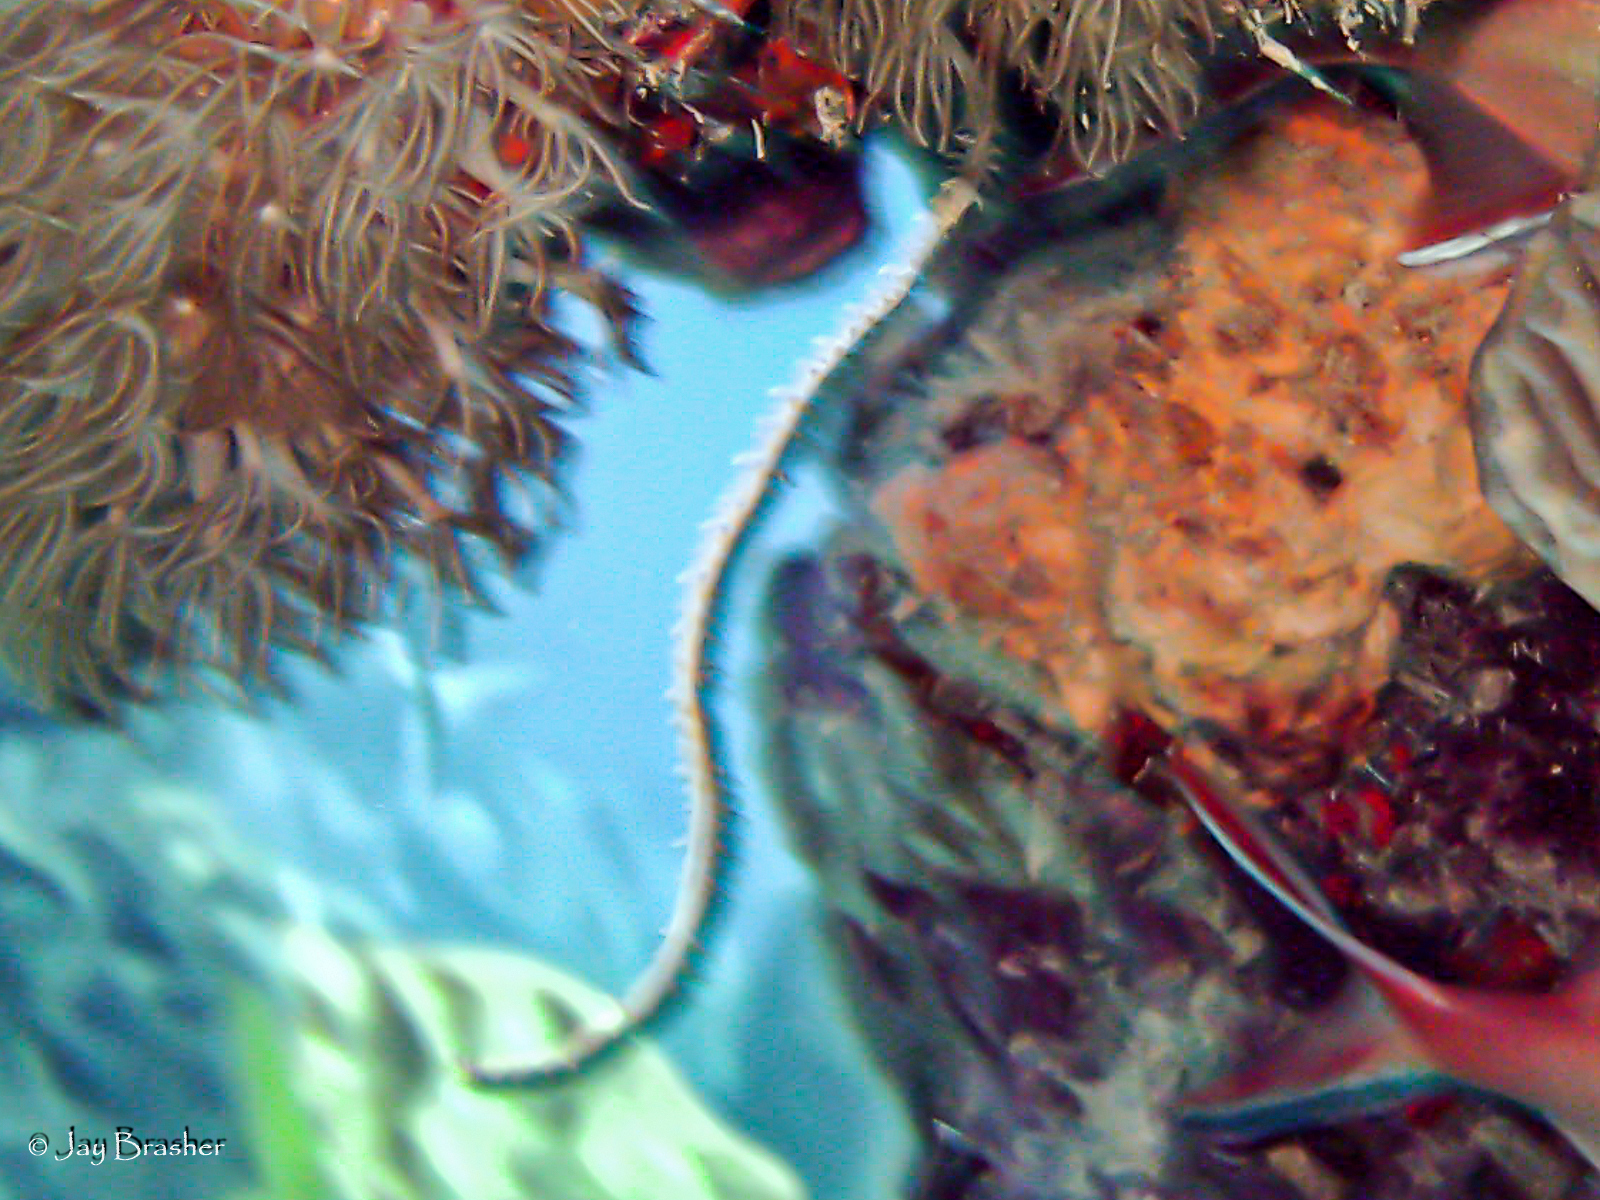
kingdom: Animalia
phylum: Cnidaria
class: Anthozoa
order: Antipatharia
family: Antipathidae
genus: Stichopathes
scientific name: Stichopathes luetkeni
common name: Black wire coral
